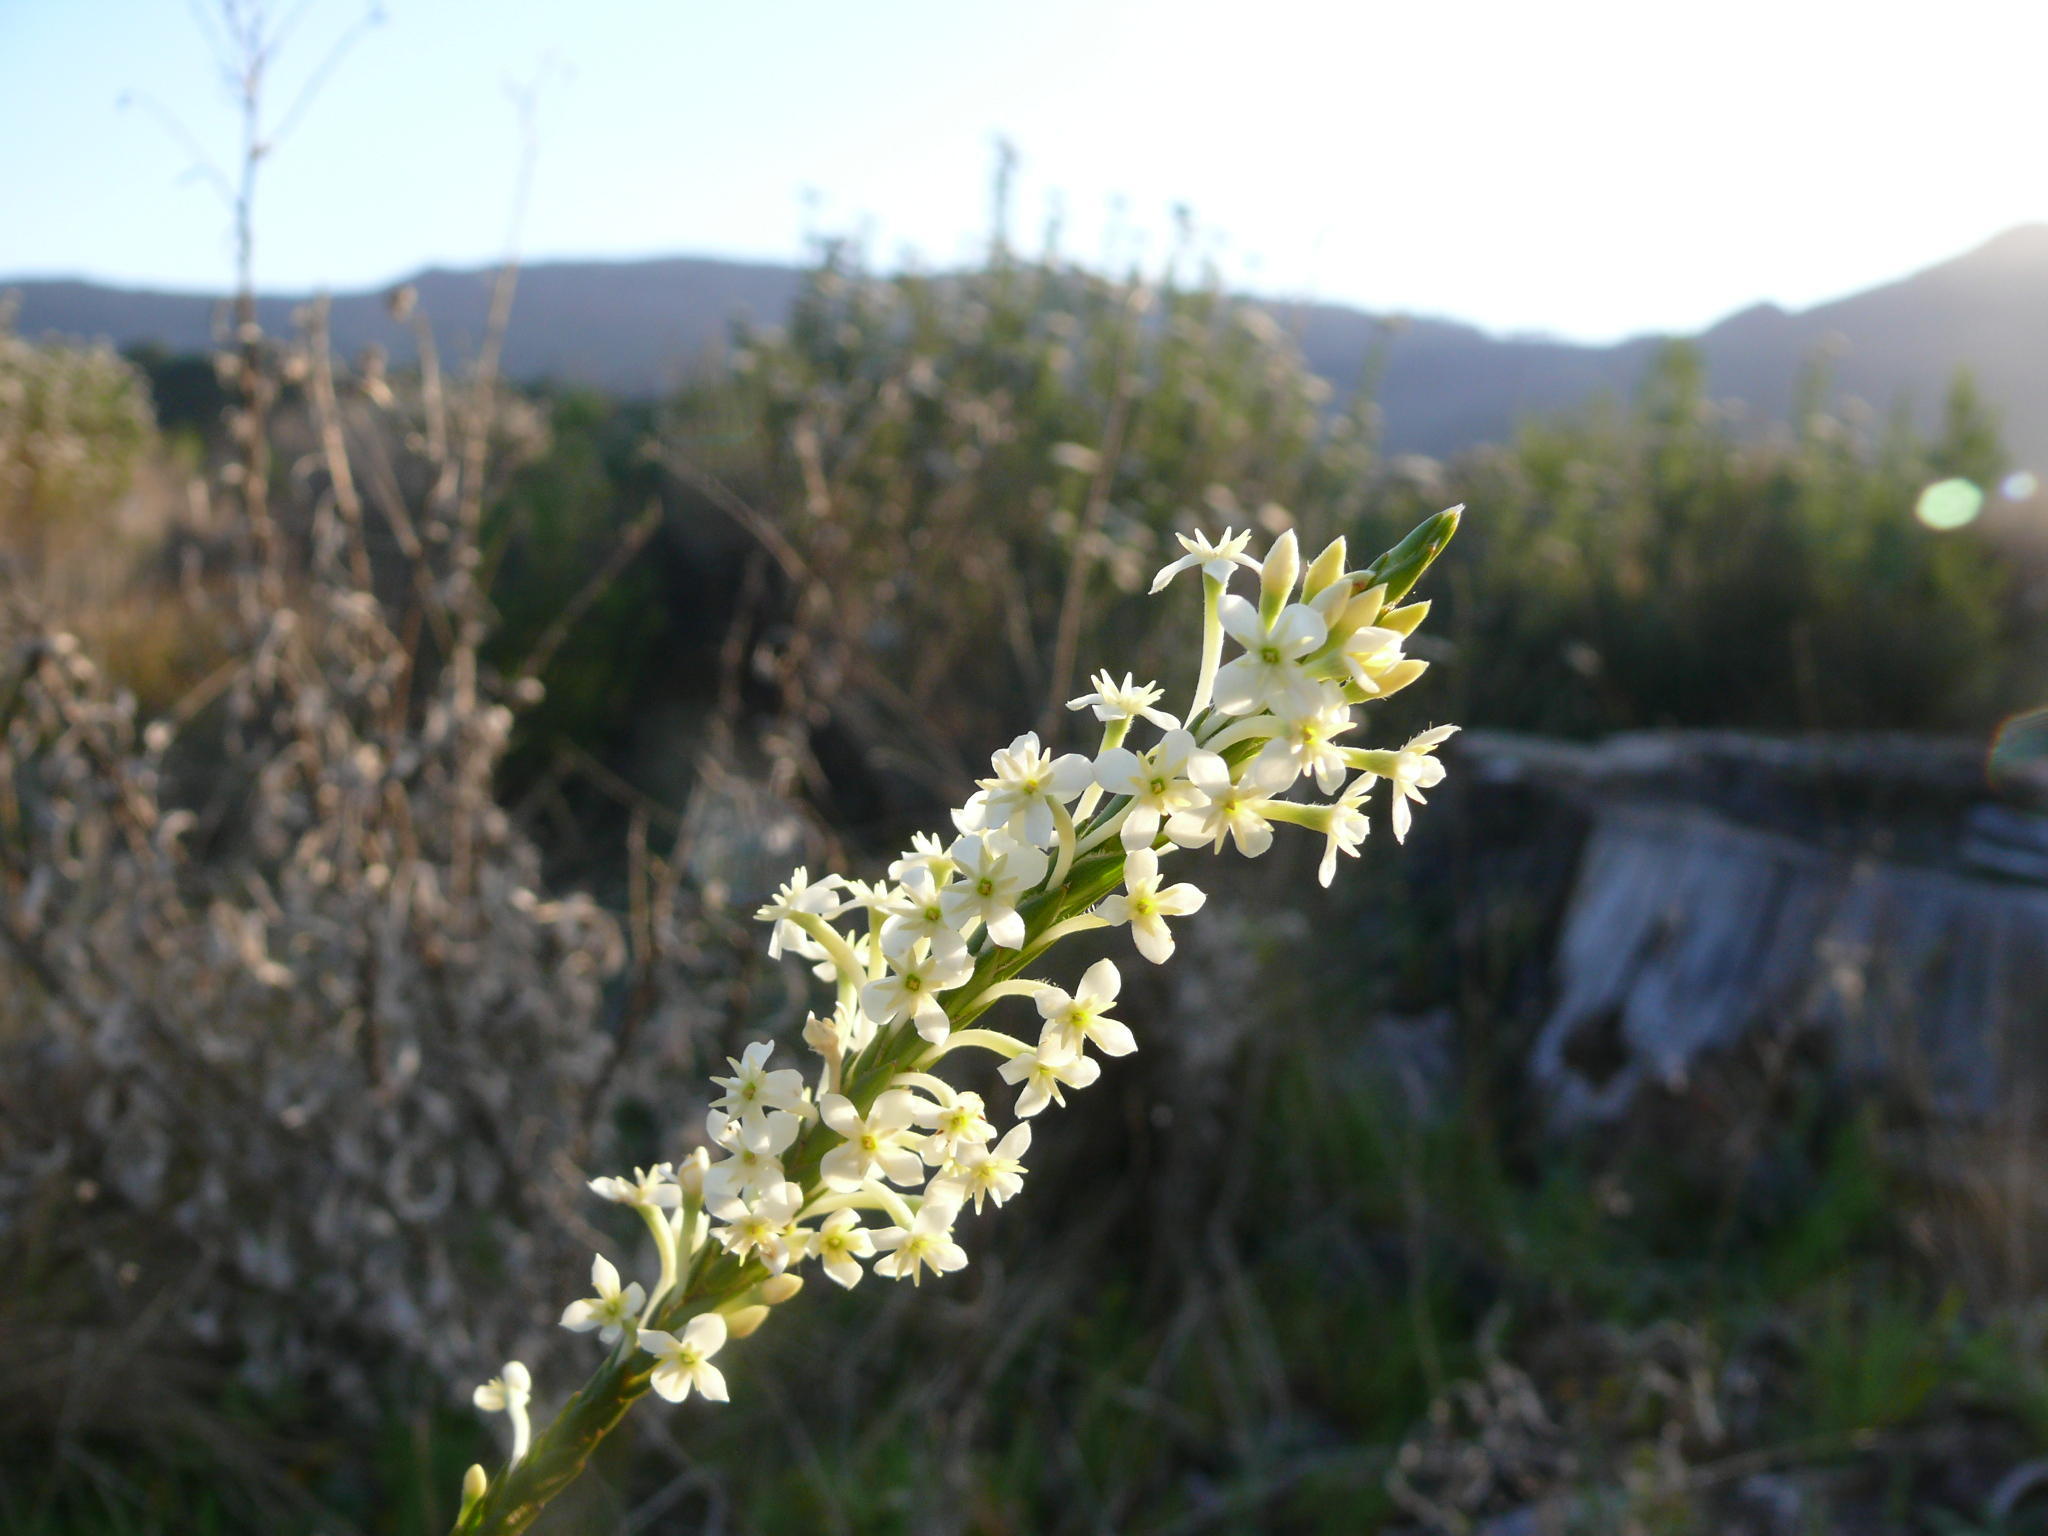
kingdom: Plantae
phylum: Tracheophyta
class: Magnoliopsida
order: Malvales
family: Thymelaeaceae
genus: Struthiola
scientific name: Struthiola ciliata
